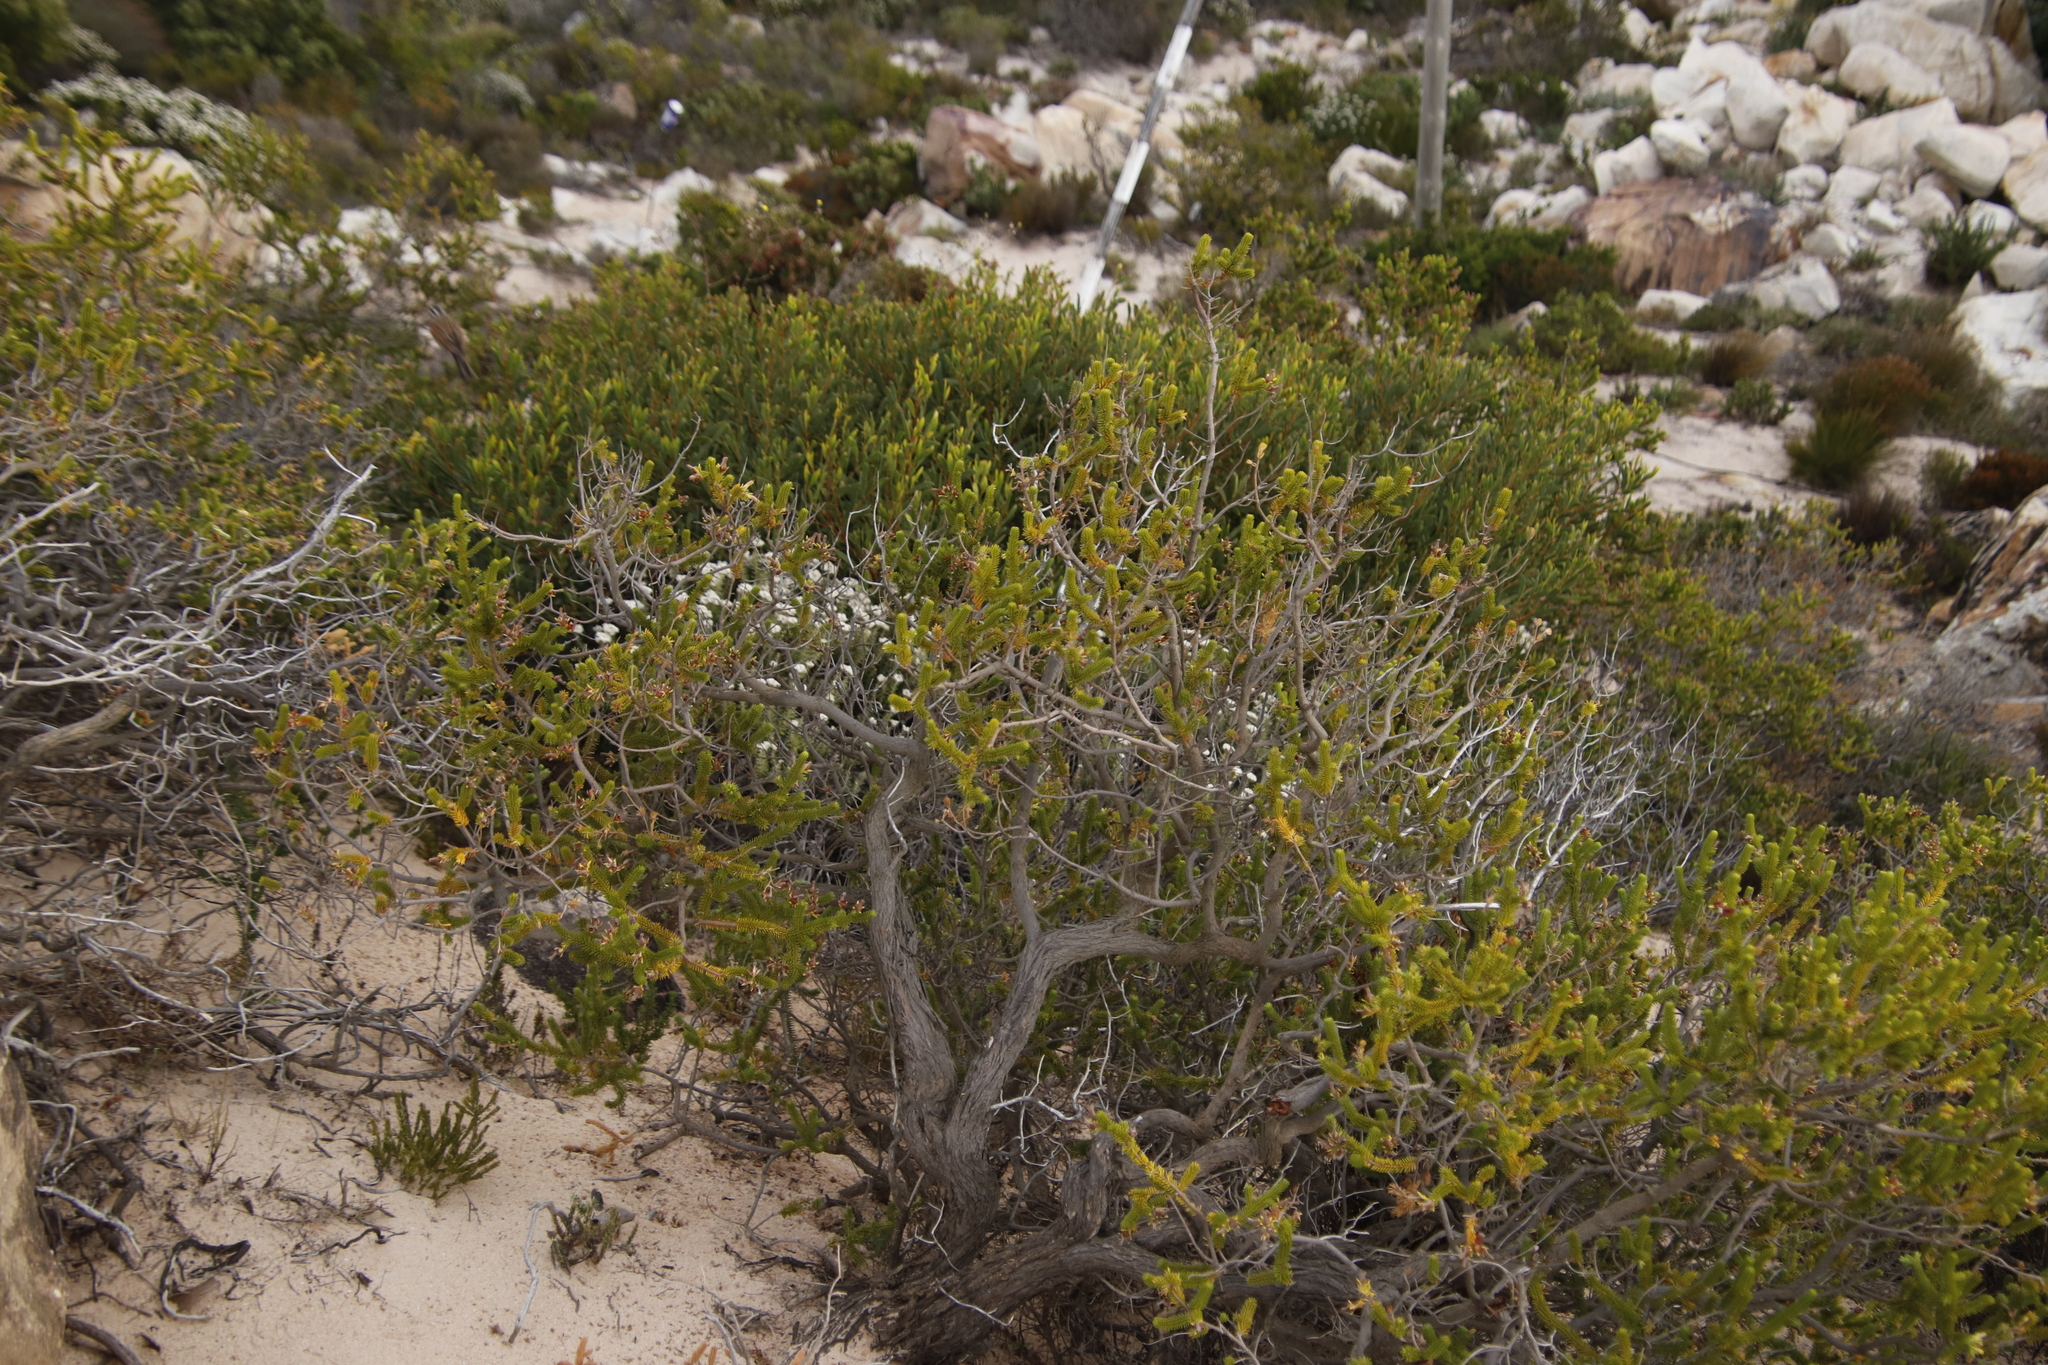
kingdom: Plantae
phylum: Tracheophyta
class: Magnoliopsida
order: Ericales
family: Ericaceae
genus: Erica
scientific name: Erica brachialis
